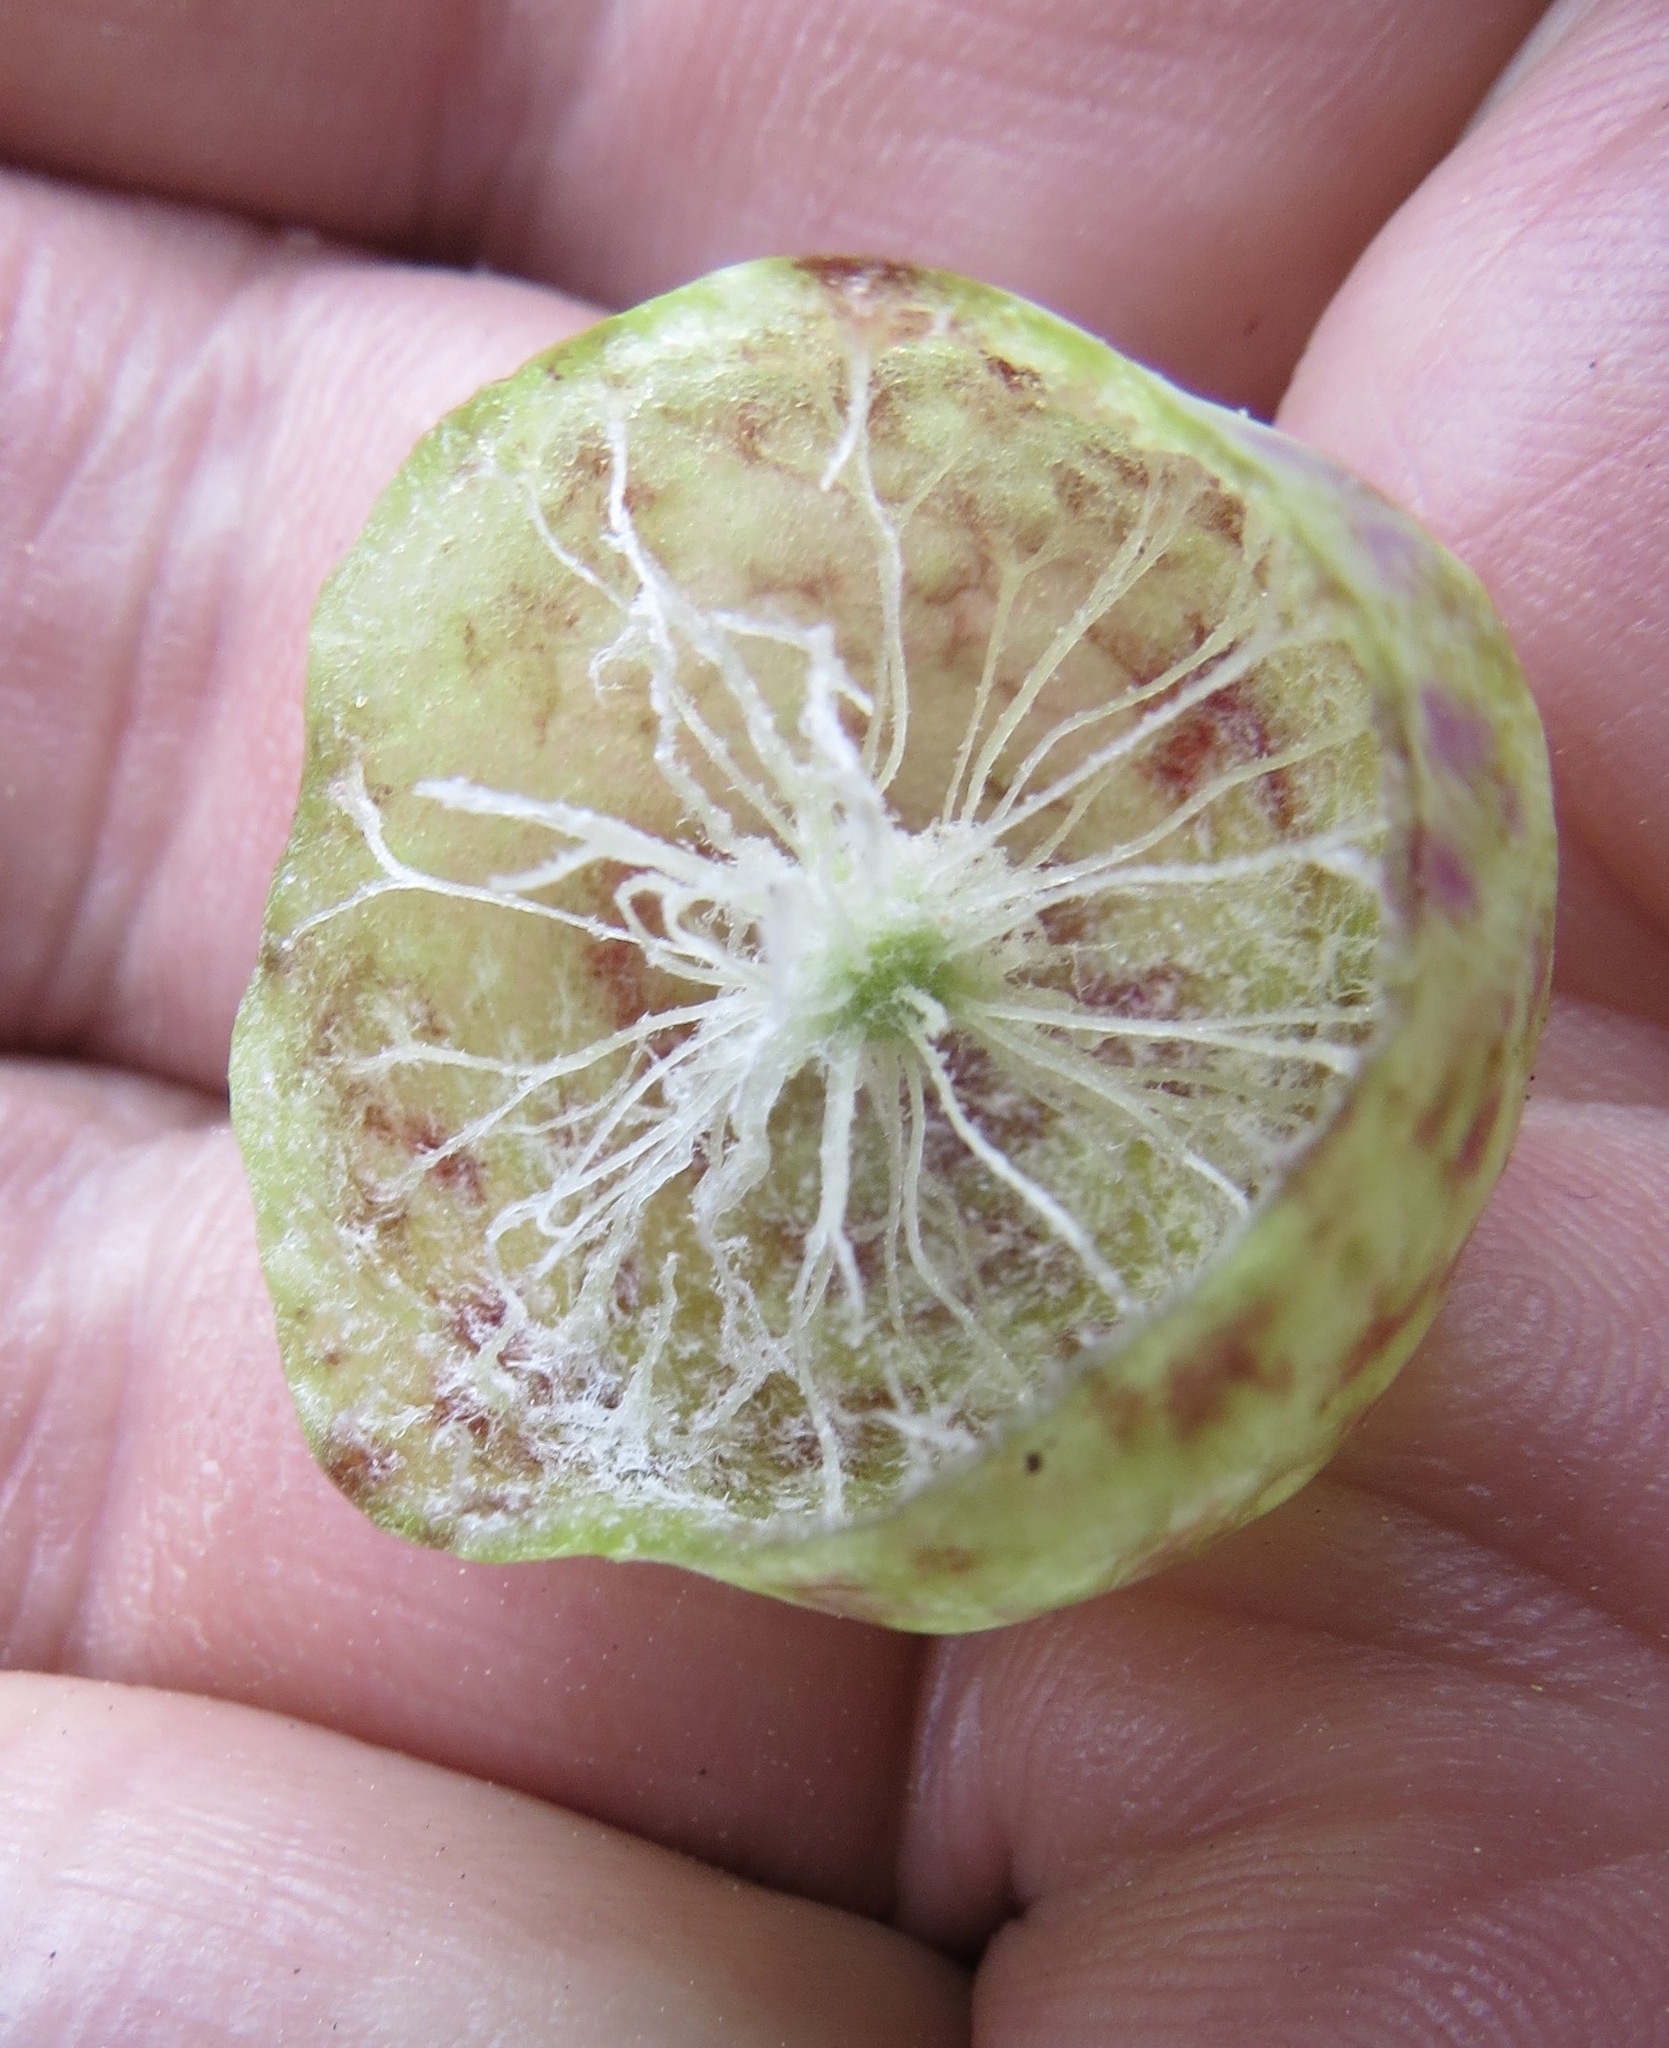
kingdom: Animalia
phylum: Arthropoda
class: Insecta
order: Hymenoptera
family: Cynipidae
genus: Andricus
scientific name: Andricus
